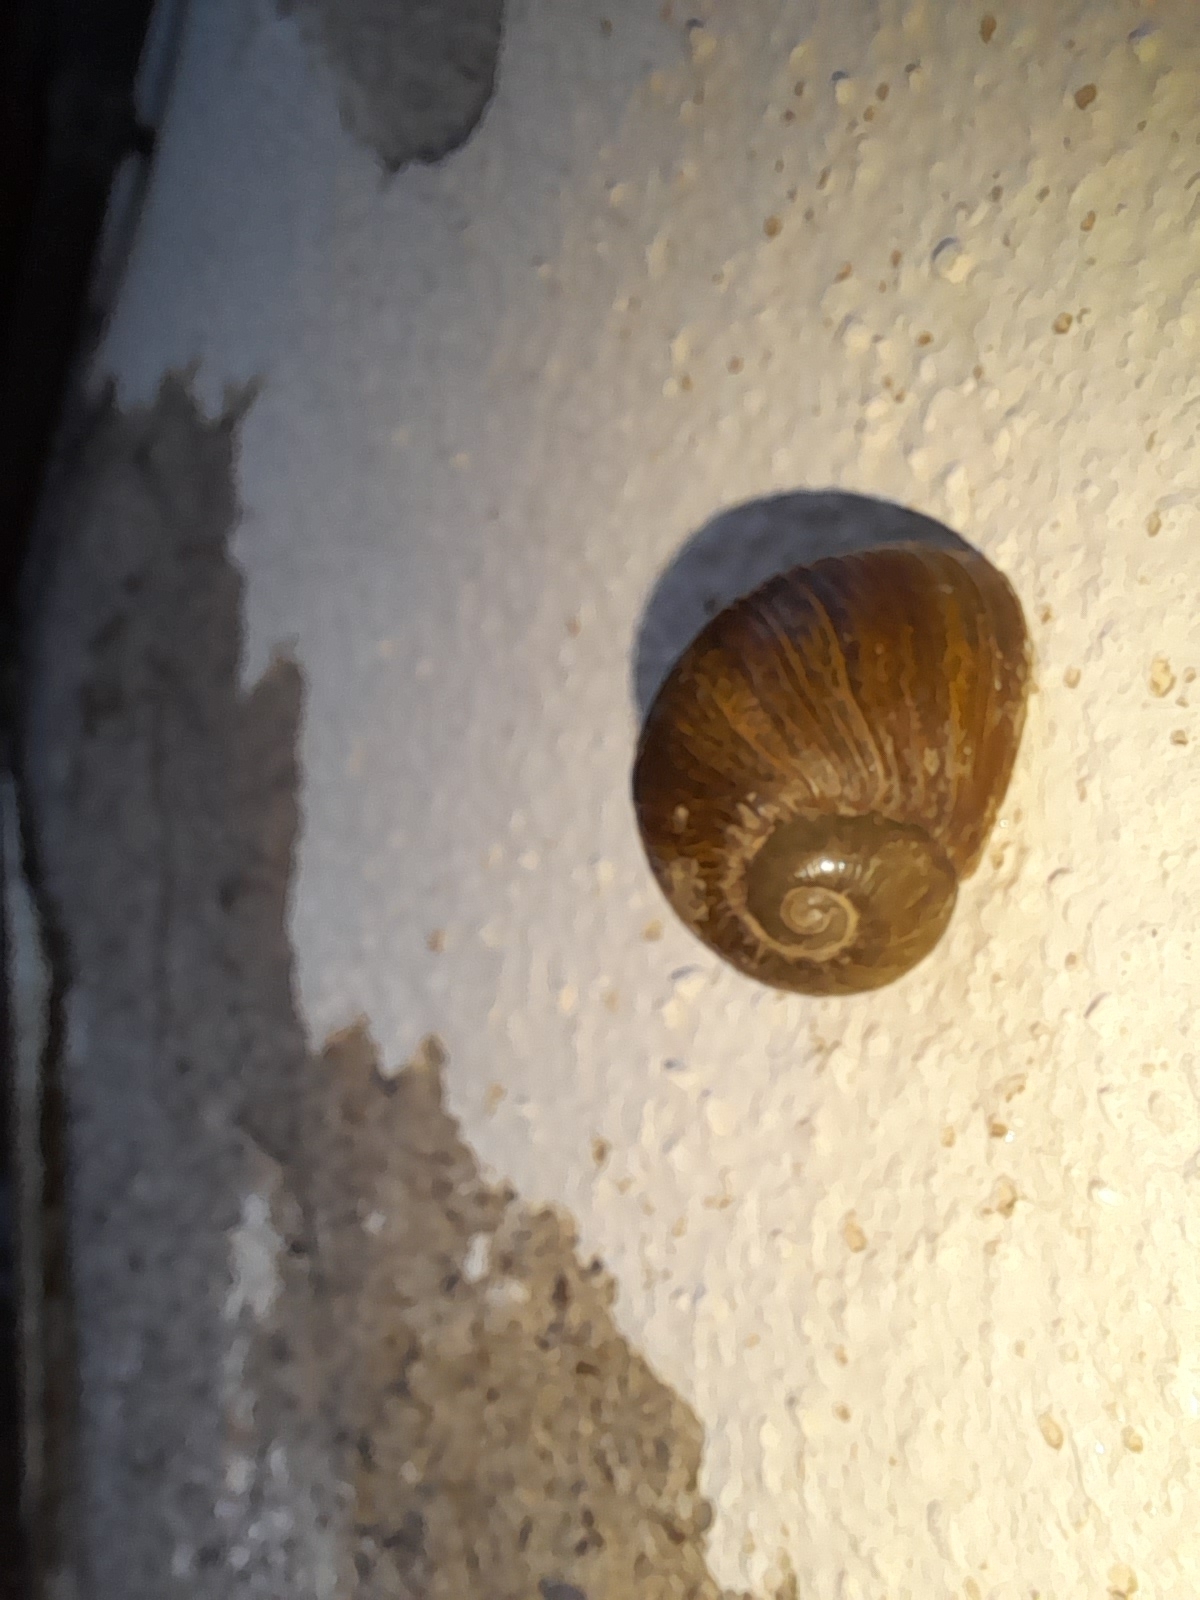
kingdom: Animalia
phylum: Mollusca
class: Gastropoda
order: Stylommatophora
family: Helicidae
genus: Cantareus
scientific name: Cantareus apertus
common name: Green gardensnail
